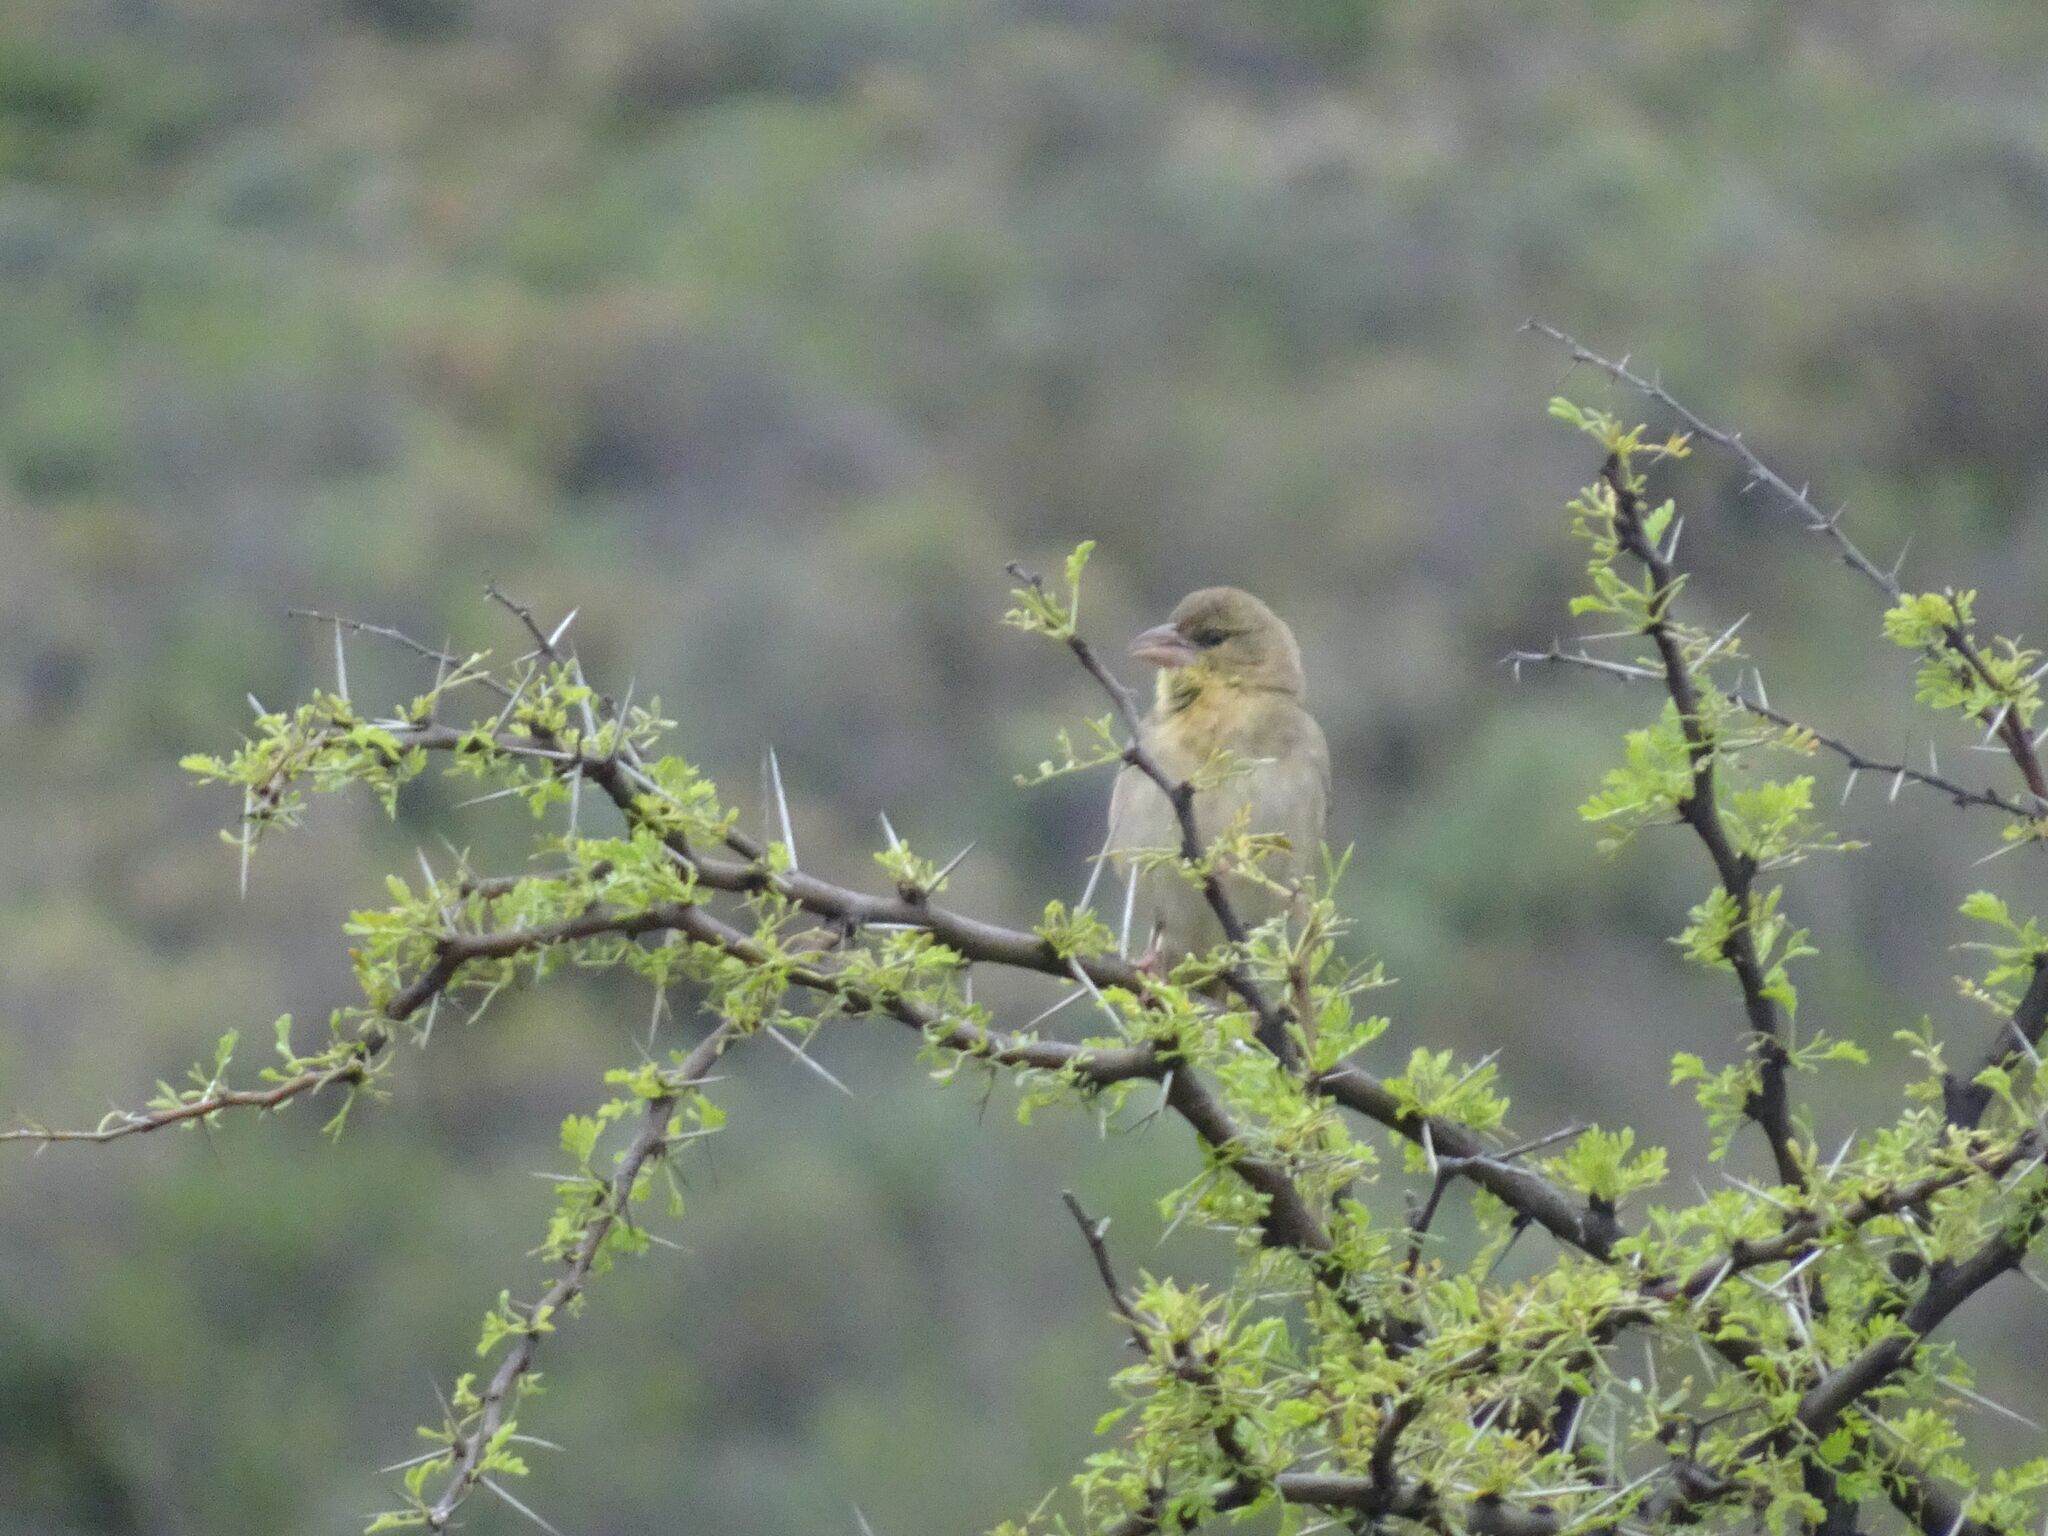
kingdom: Animalia
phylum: Chordata
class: Aves
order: Passeriformes
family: Ploceidae
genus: Ploceus
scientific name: Ploceus velatus
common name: Southern masked weaver
